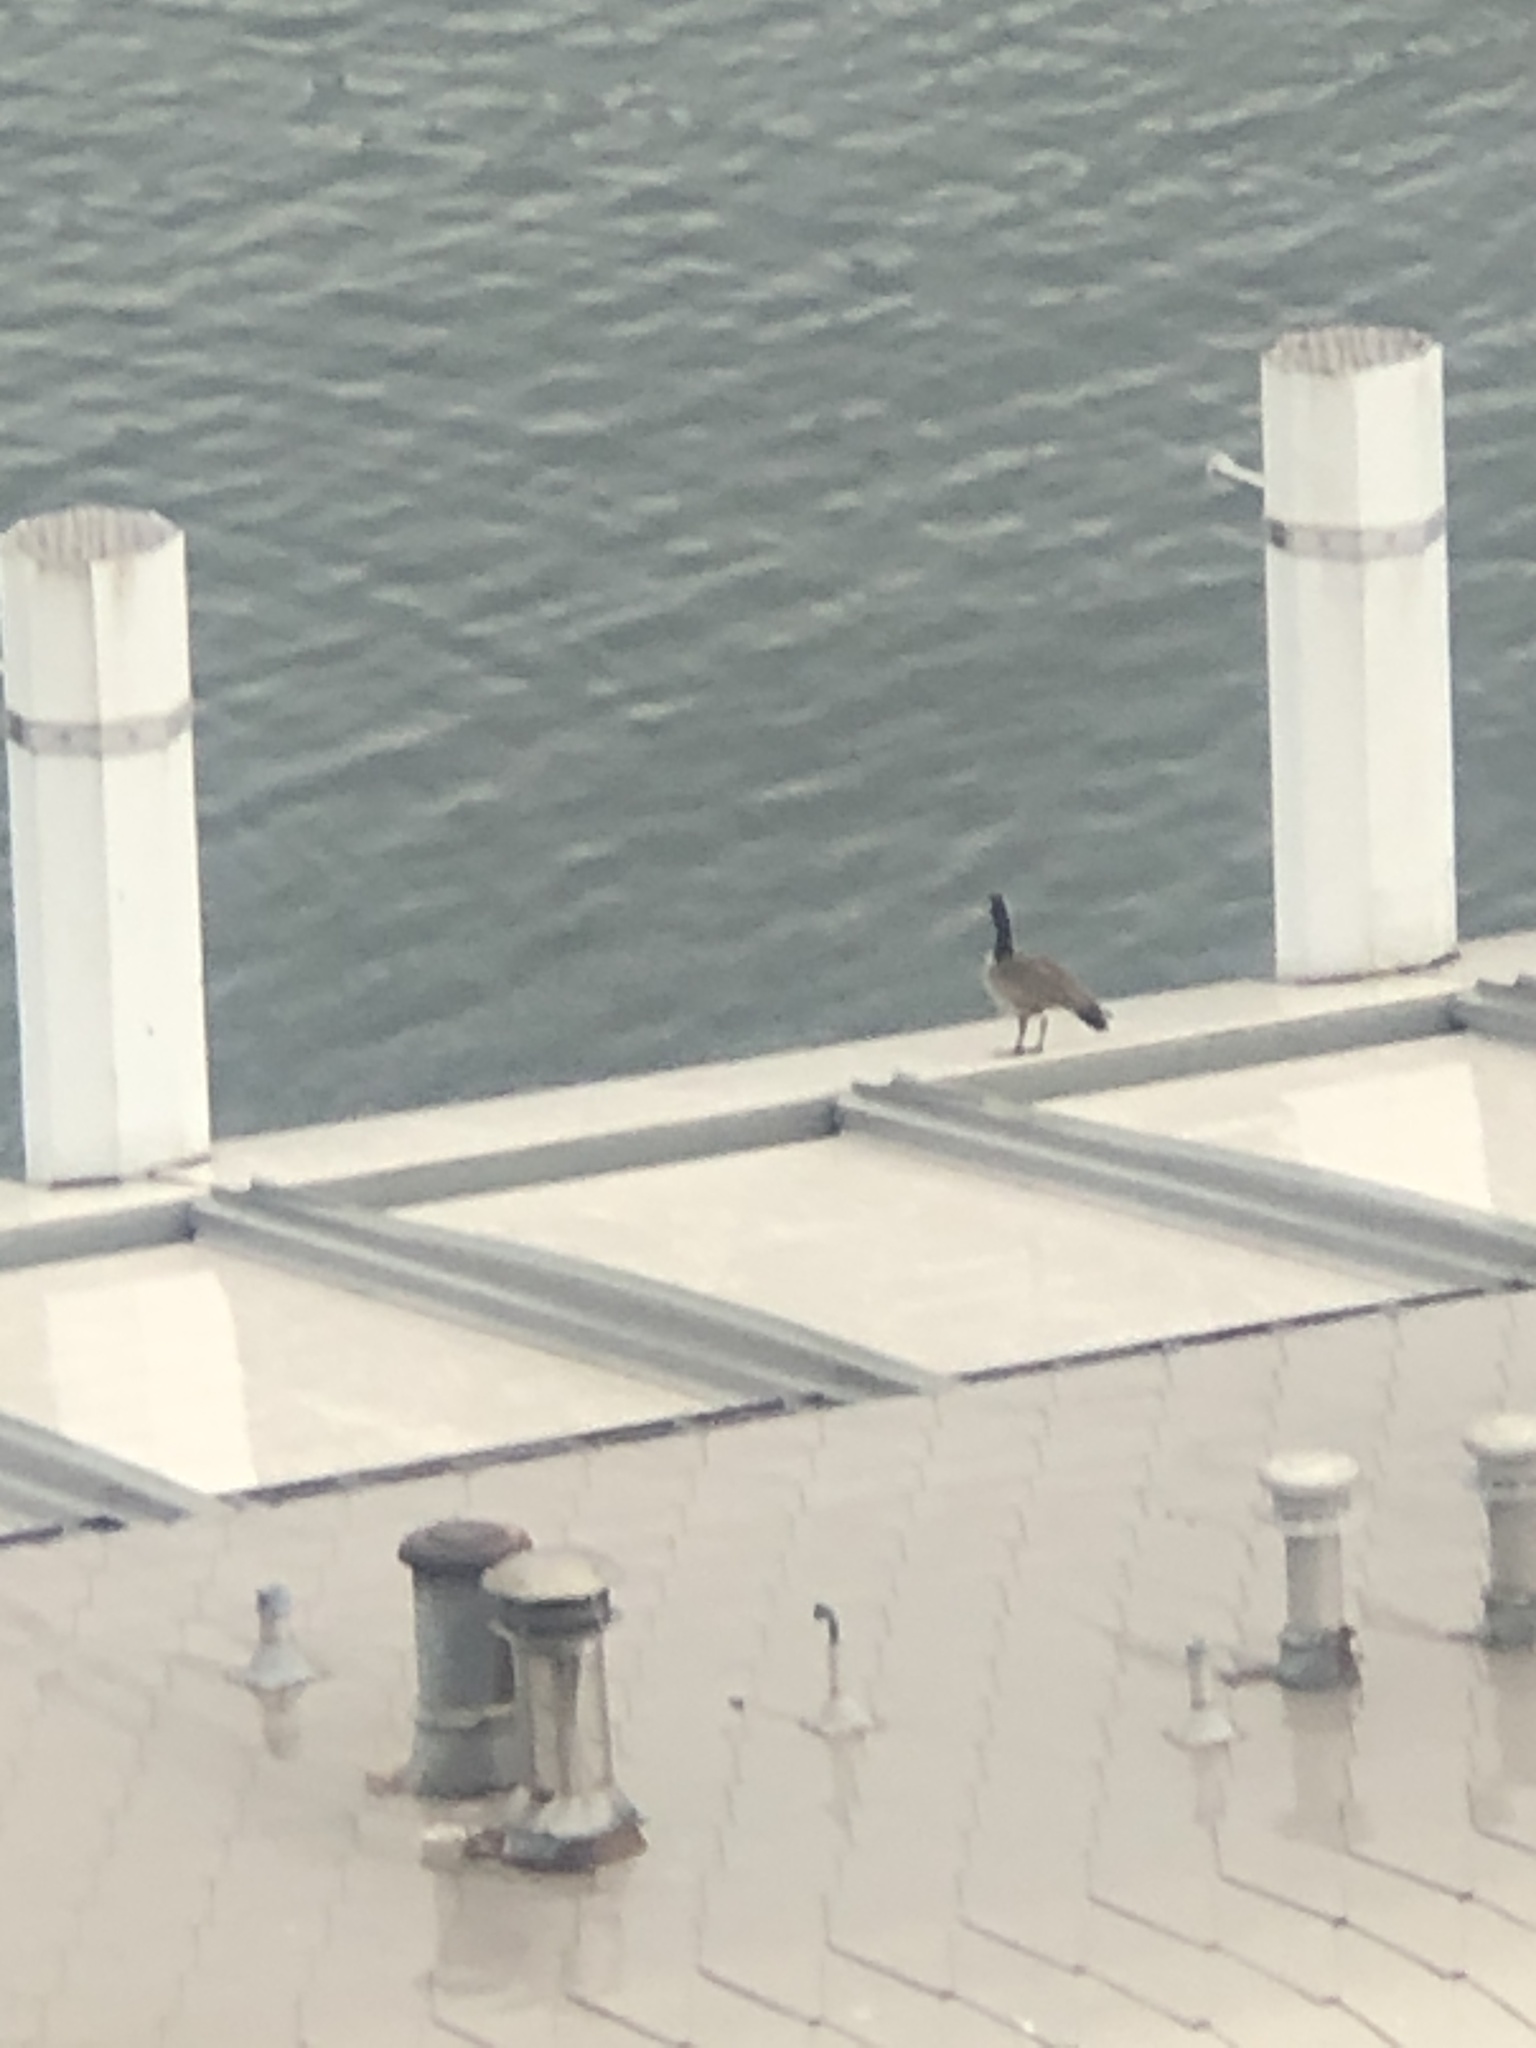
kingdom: Animalia
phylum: Chordata
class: Aves
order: Anseriformes
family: Anatidae
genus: Branta
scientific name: Branta canadensis
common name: Canada goose
